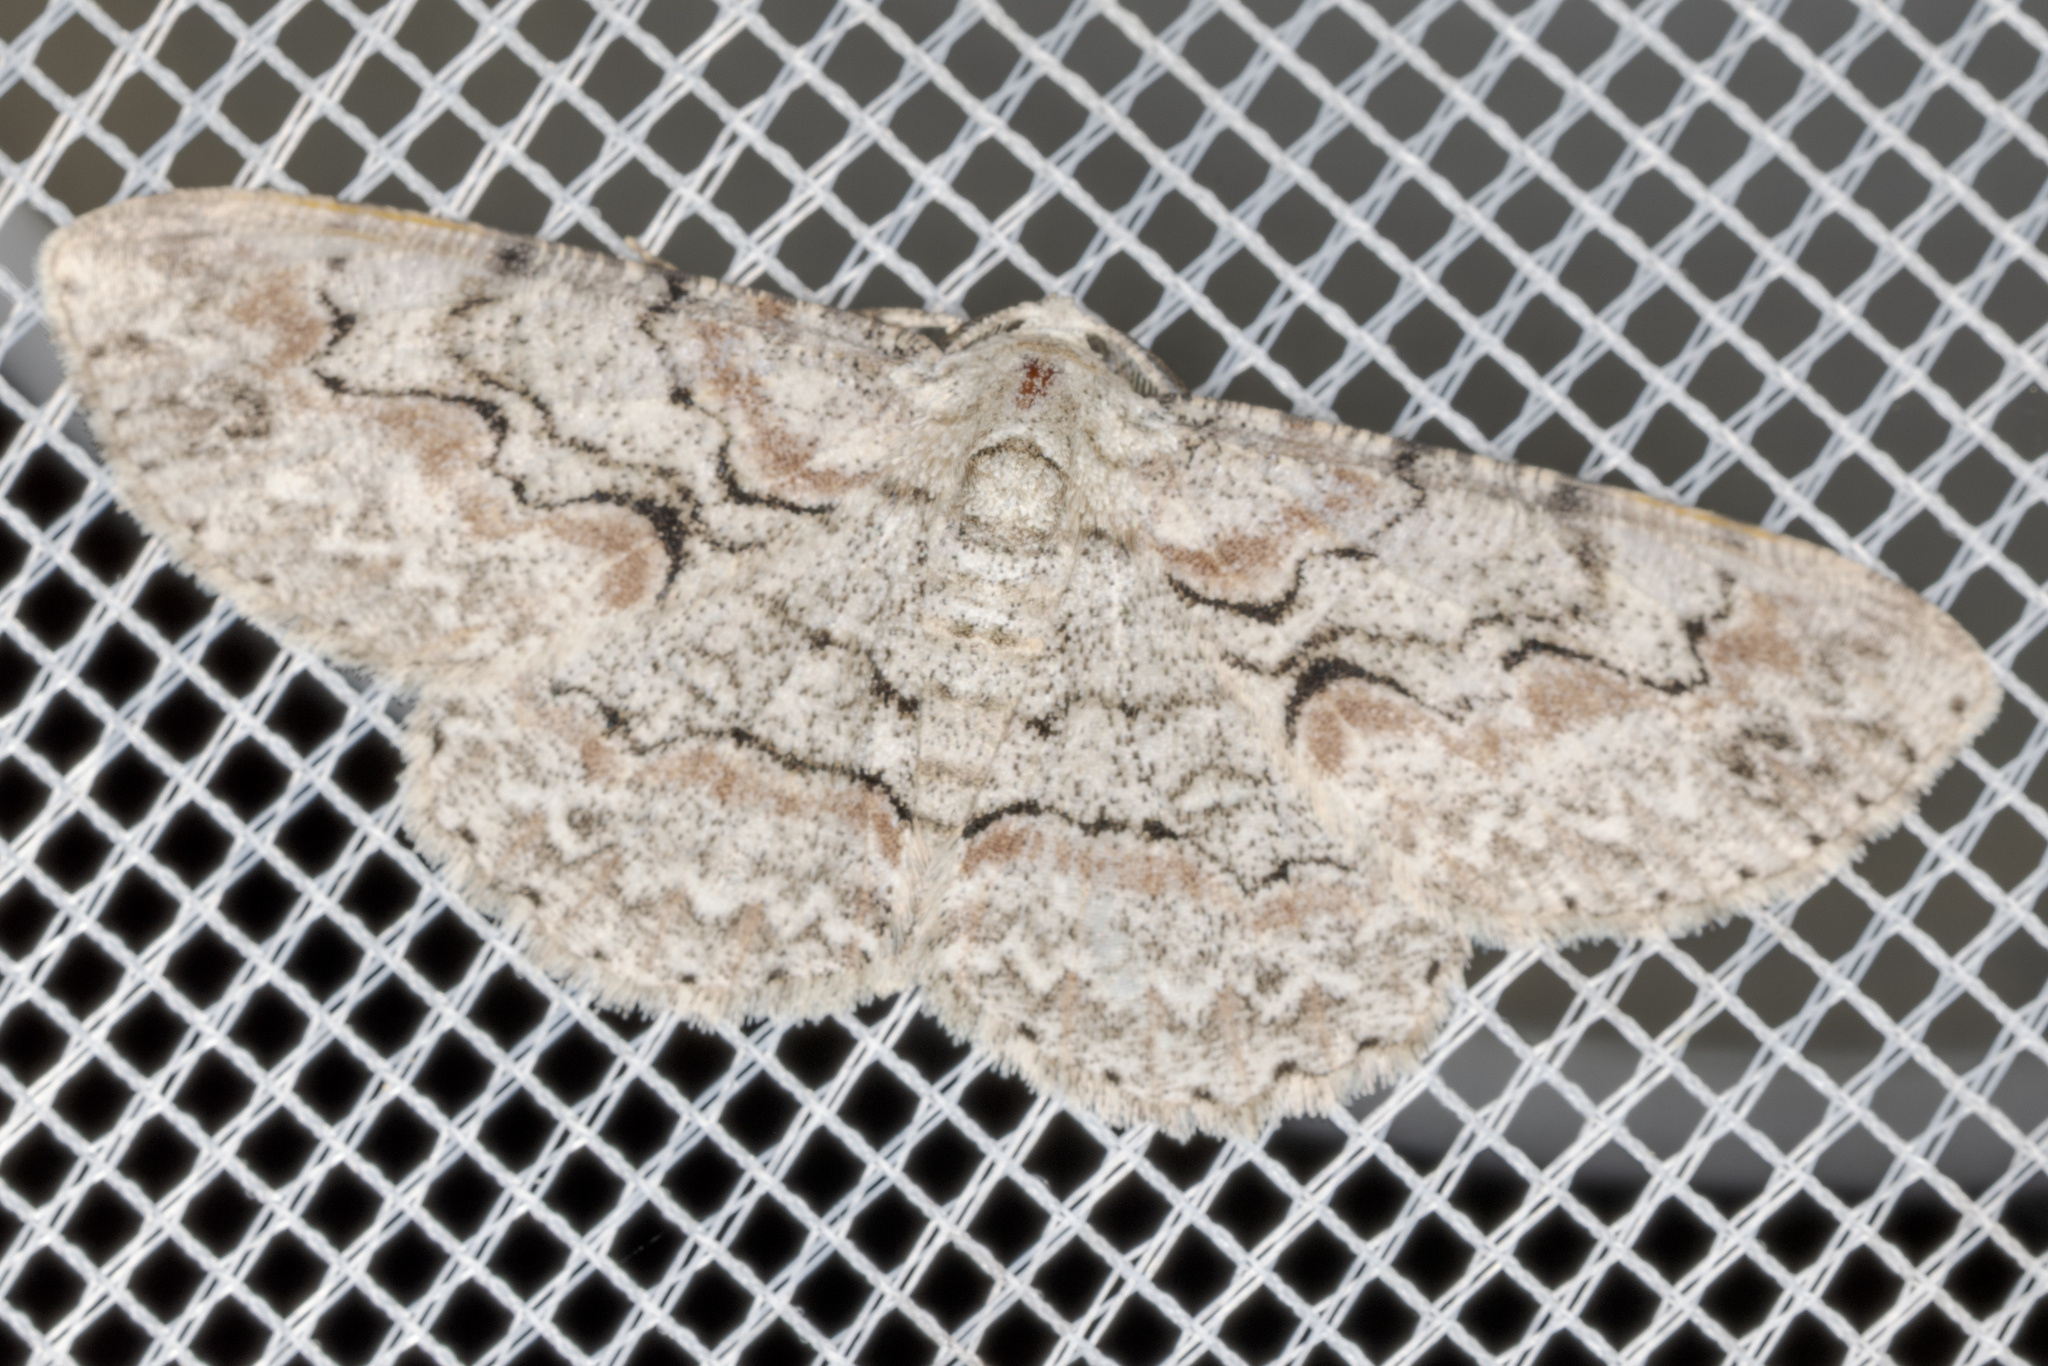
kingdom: Animalia
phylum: Arthropoda
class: Insecta
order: Lepidoptera
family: Geometridae
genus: Iridopsis
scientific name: Iridopsis defectaria
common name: Brown-shaded gray
